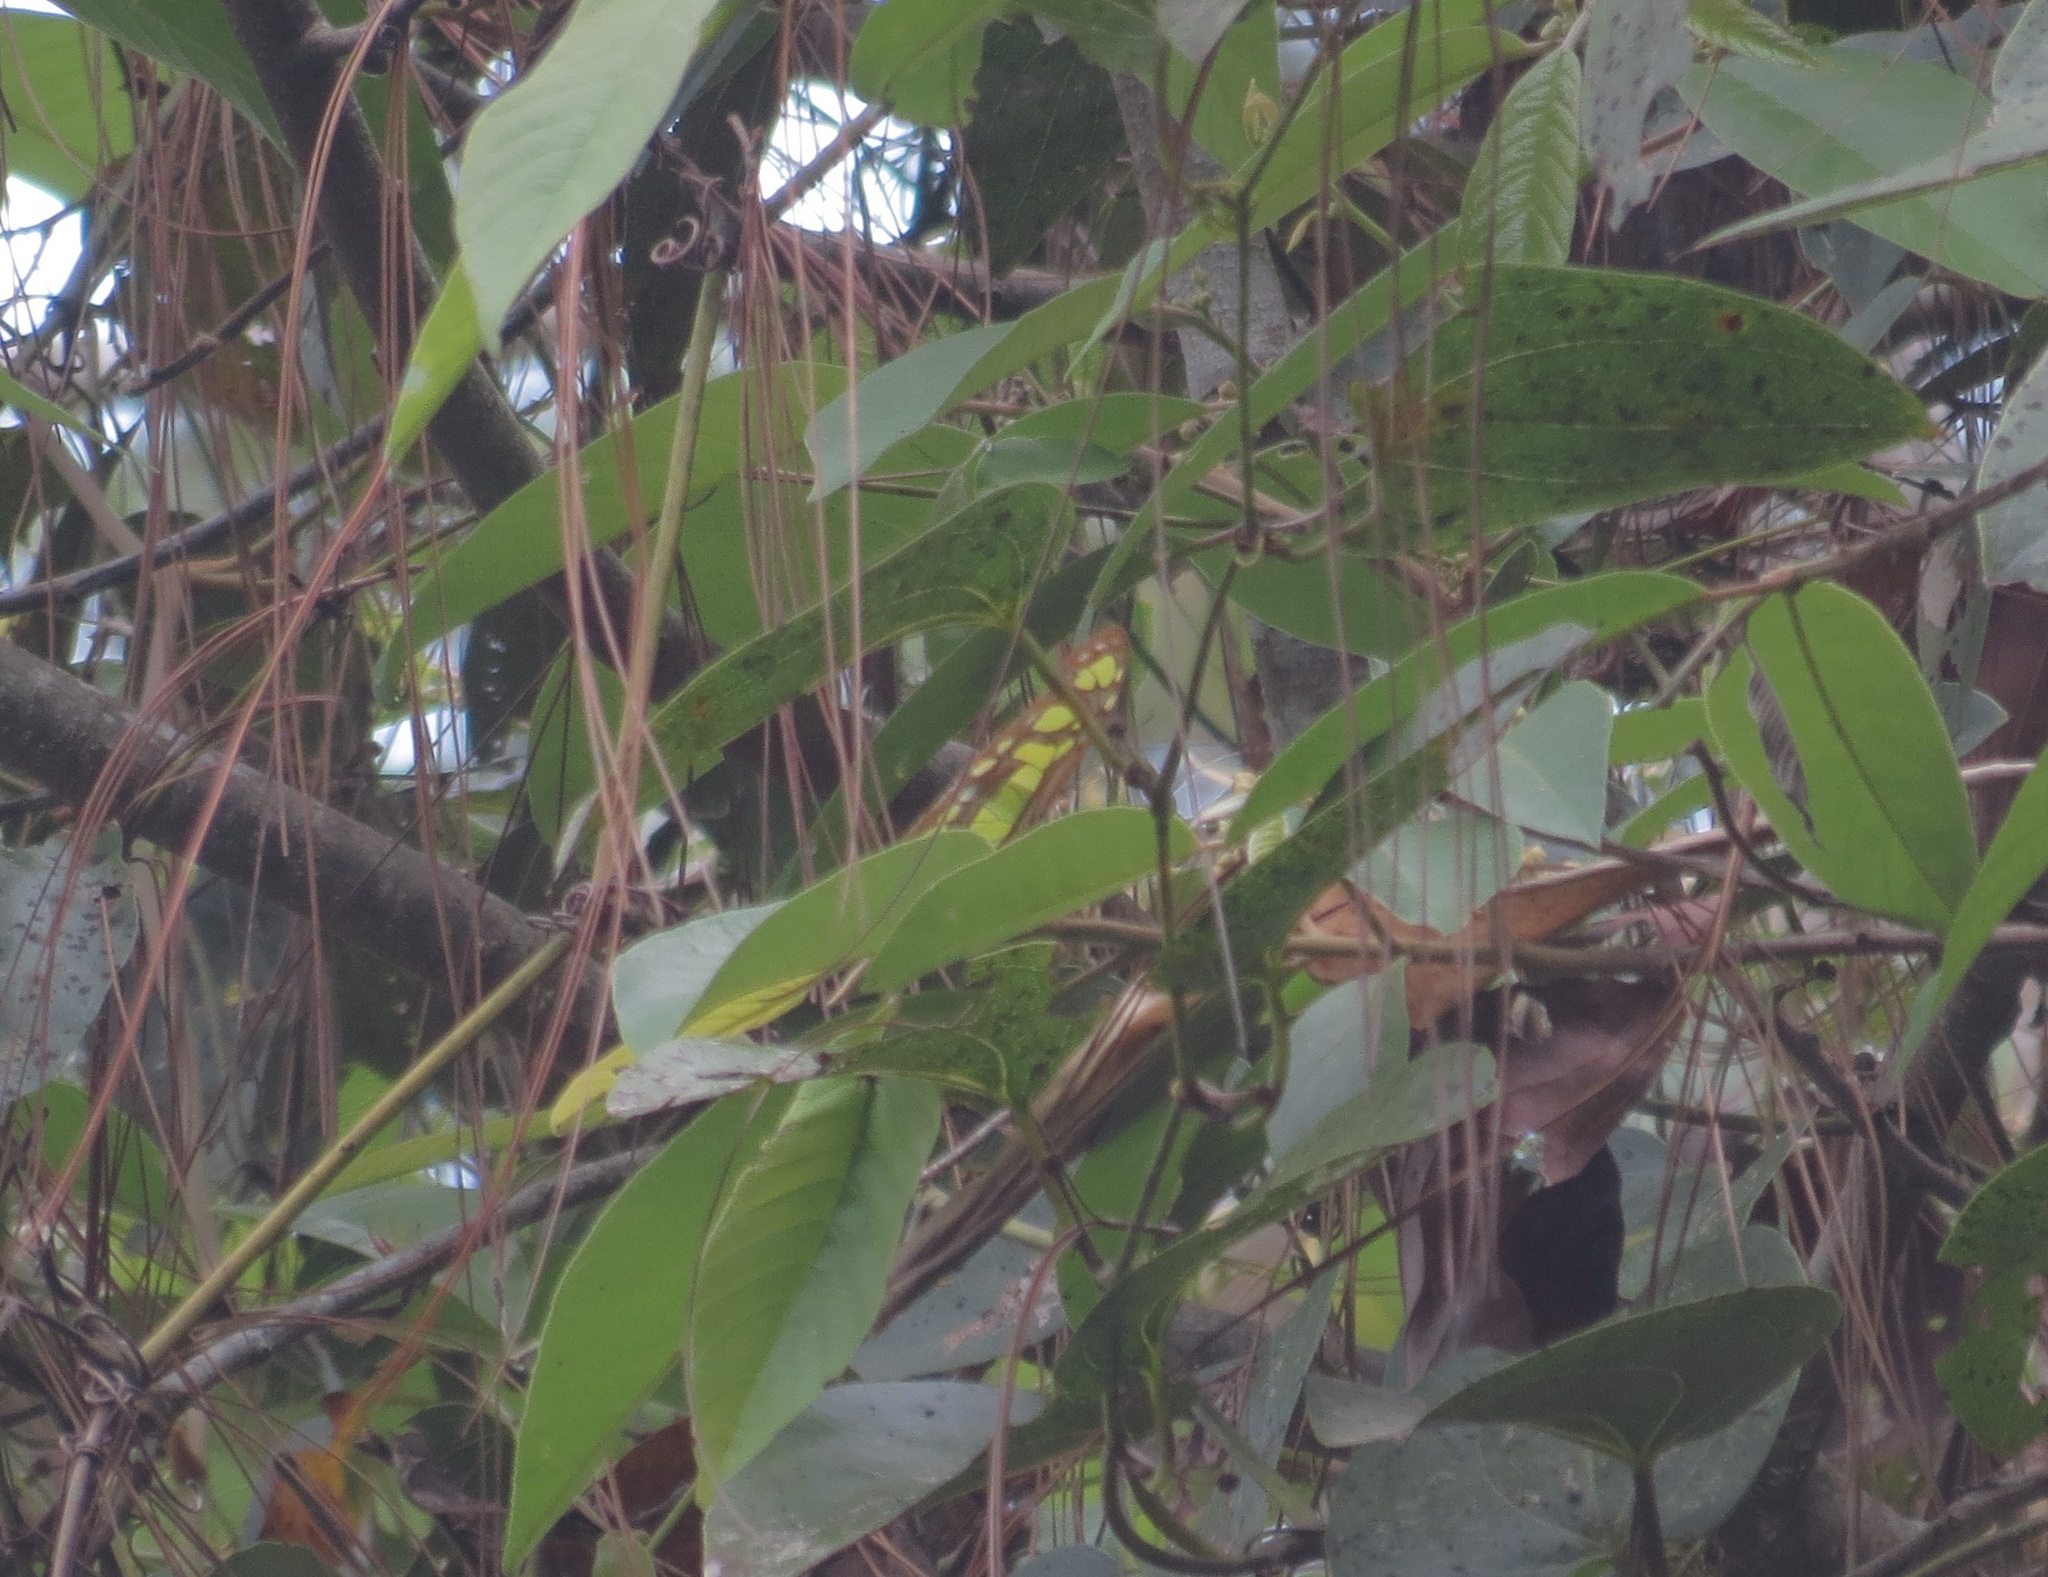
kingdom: Animalia
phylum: Arthropoda
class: Insecta
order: Lepidoptera
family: Nymphalidae
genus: Siproeta
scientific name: Siproeta stelenes
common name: Malachite
